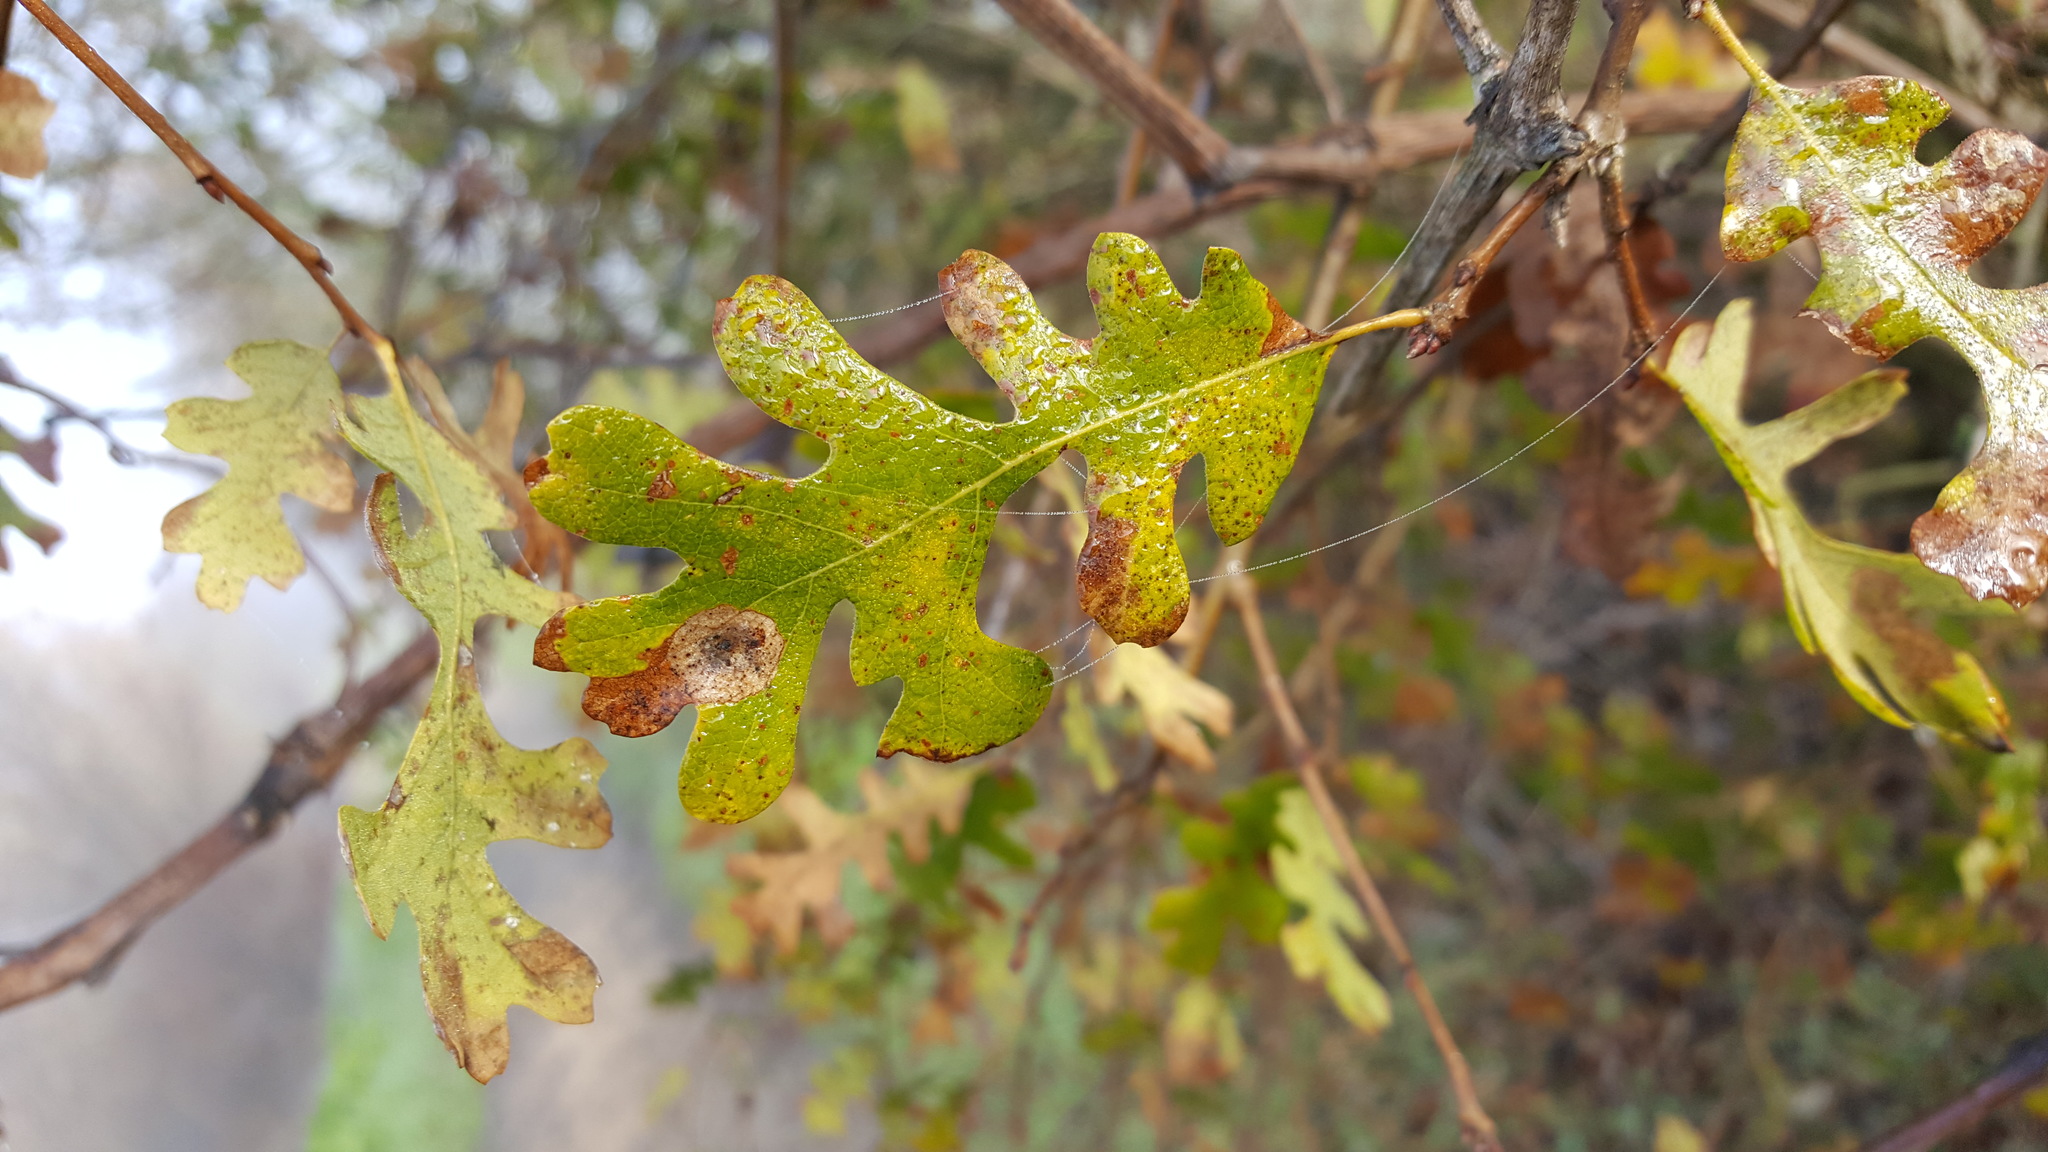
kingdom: Plantae
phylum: Tracheophyta
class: Magnoliopsida
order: Fagales
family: Fagaceae
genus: Quercus
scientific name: Quercus lobata
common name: Valley oak
